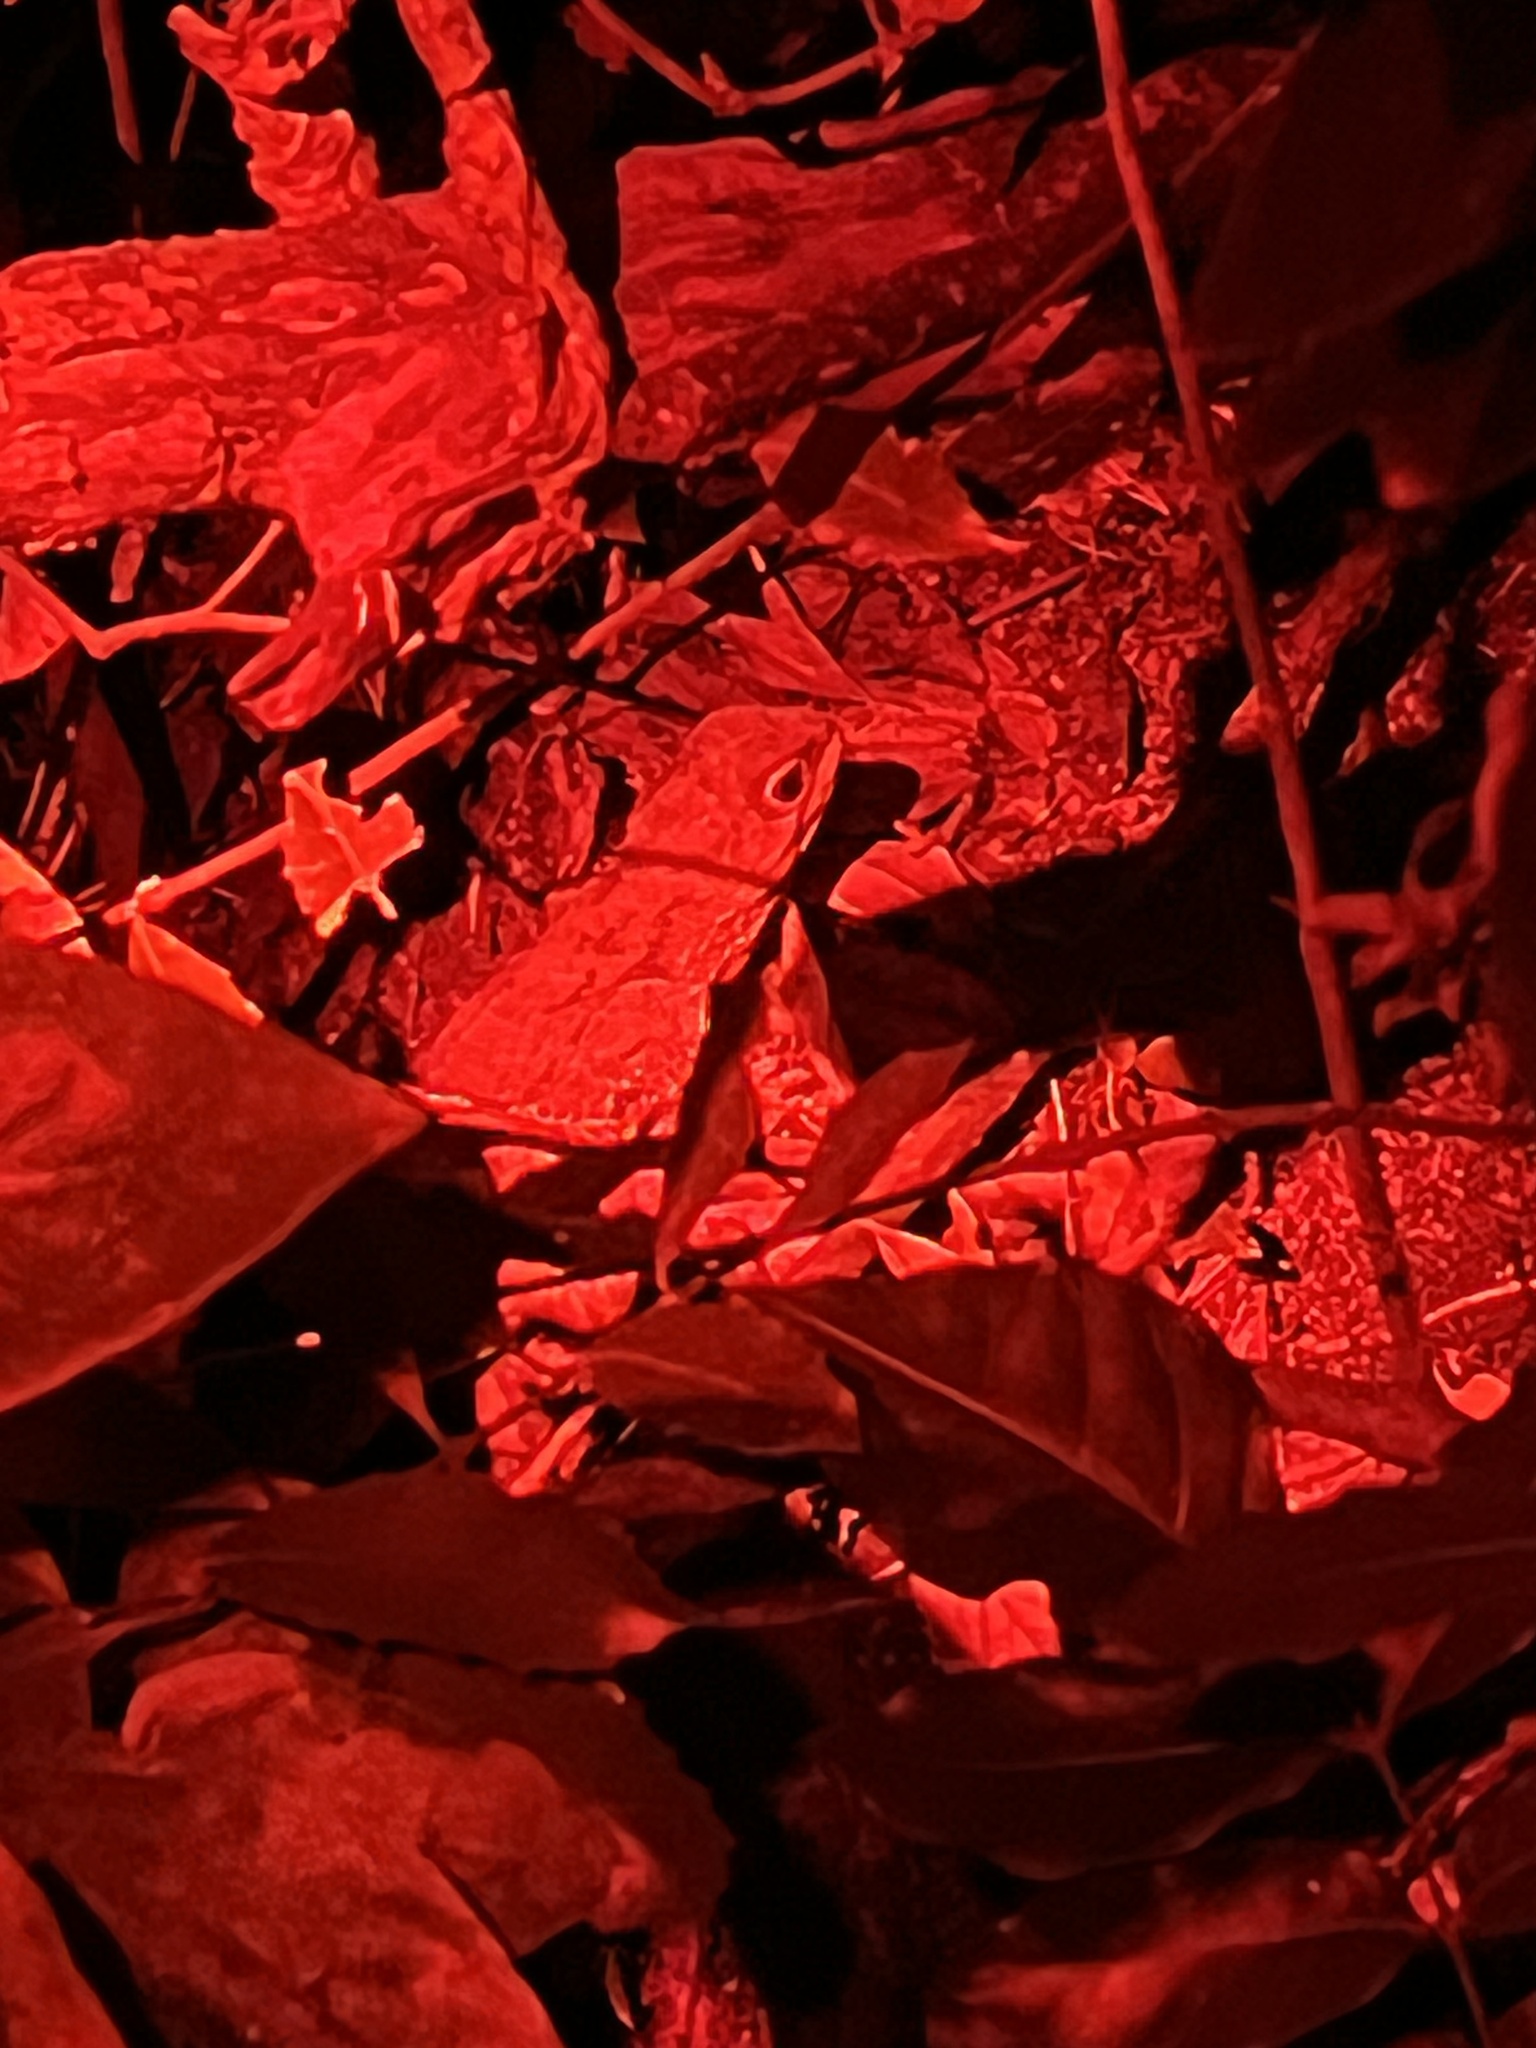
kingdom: Animalia
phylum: Chordata
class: Sphenodontia
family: Sphenodontidae
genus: Sphenodon
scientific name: Sphenodon punctatus
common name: Tuatara
